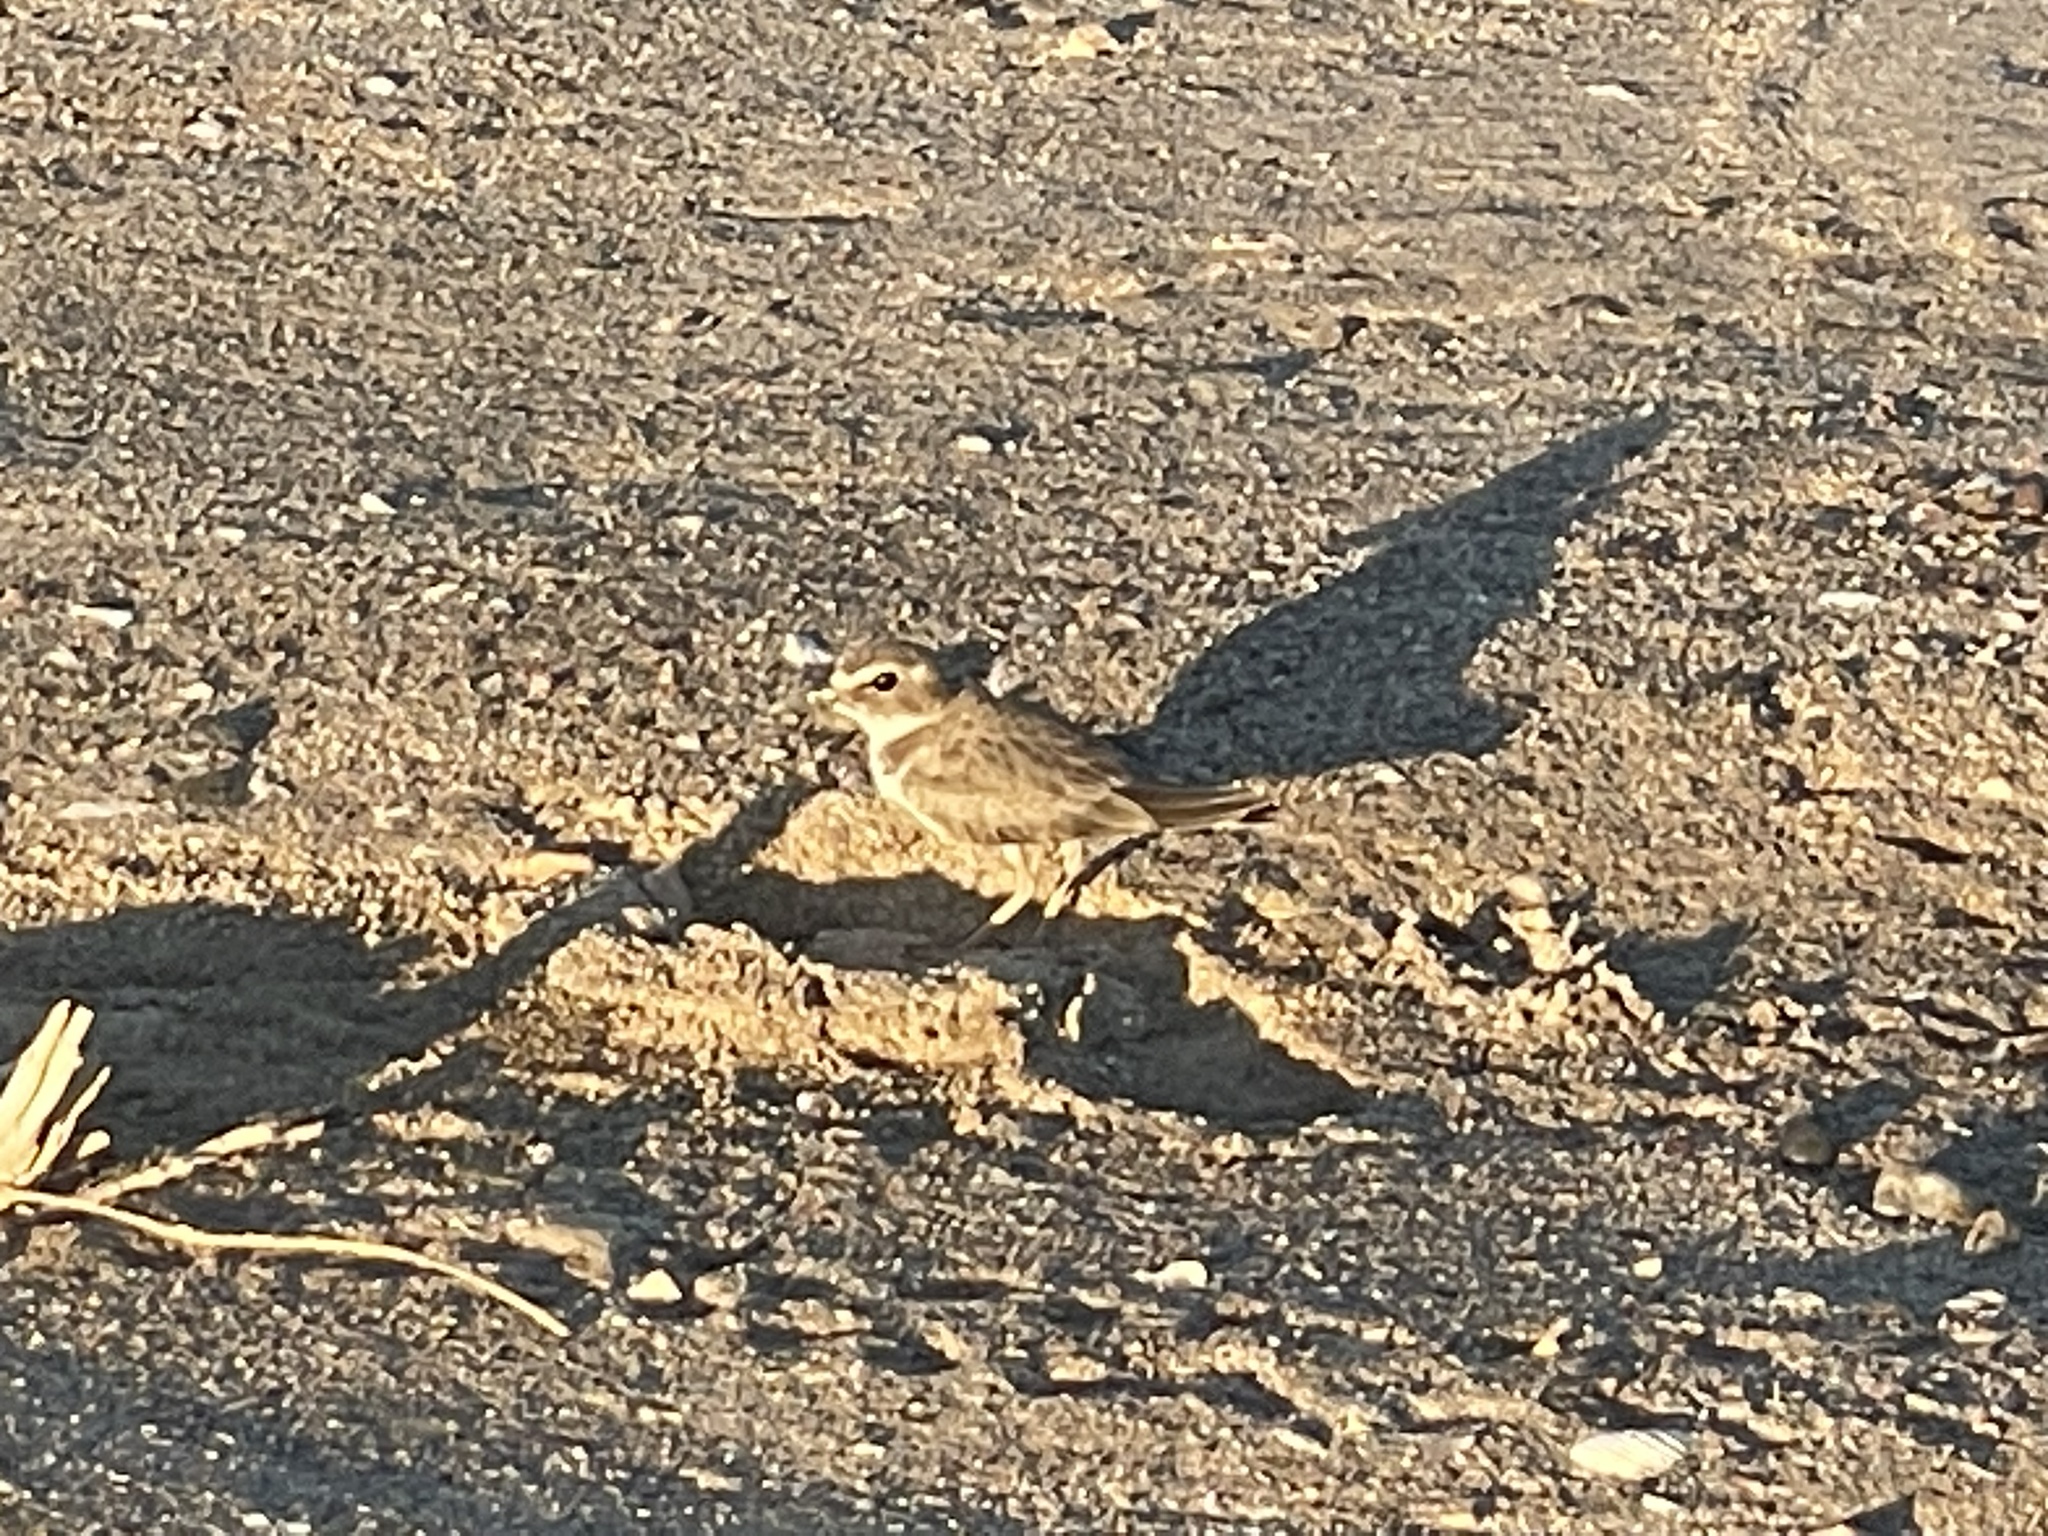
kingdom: Animalia
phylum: Chordata
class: Aves
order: Charadriiformes
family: Charadriidae
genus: Anarhynchus
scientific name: Anarhynchus
